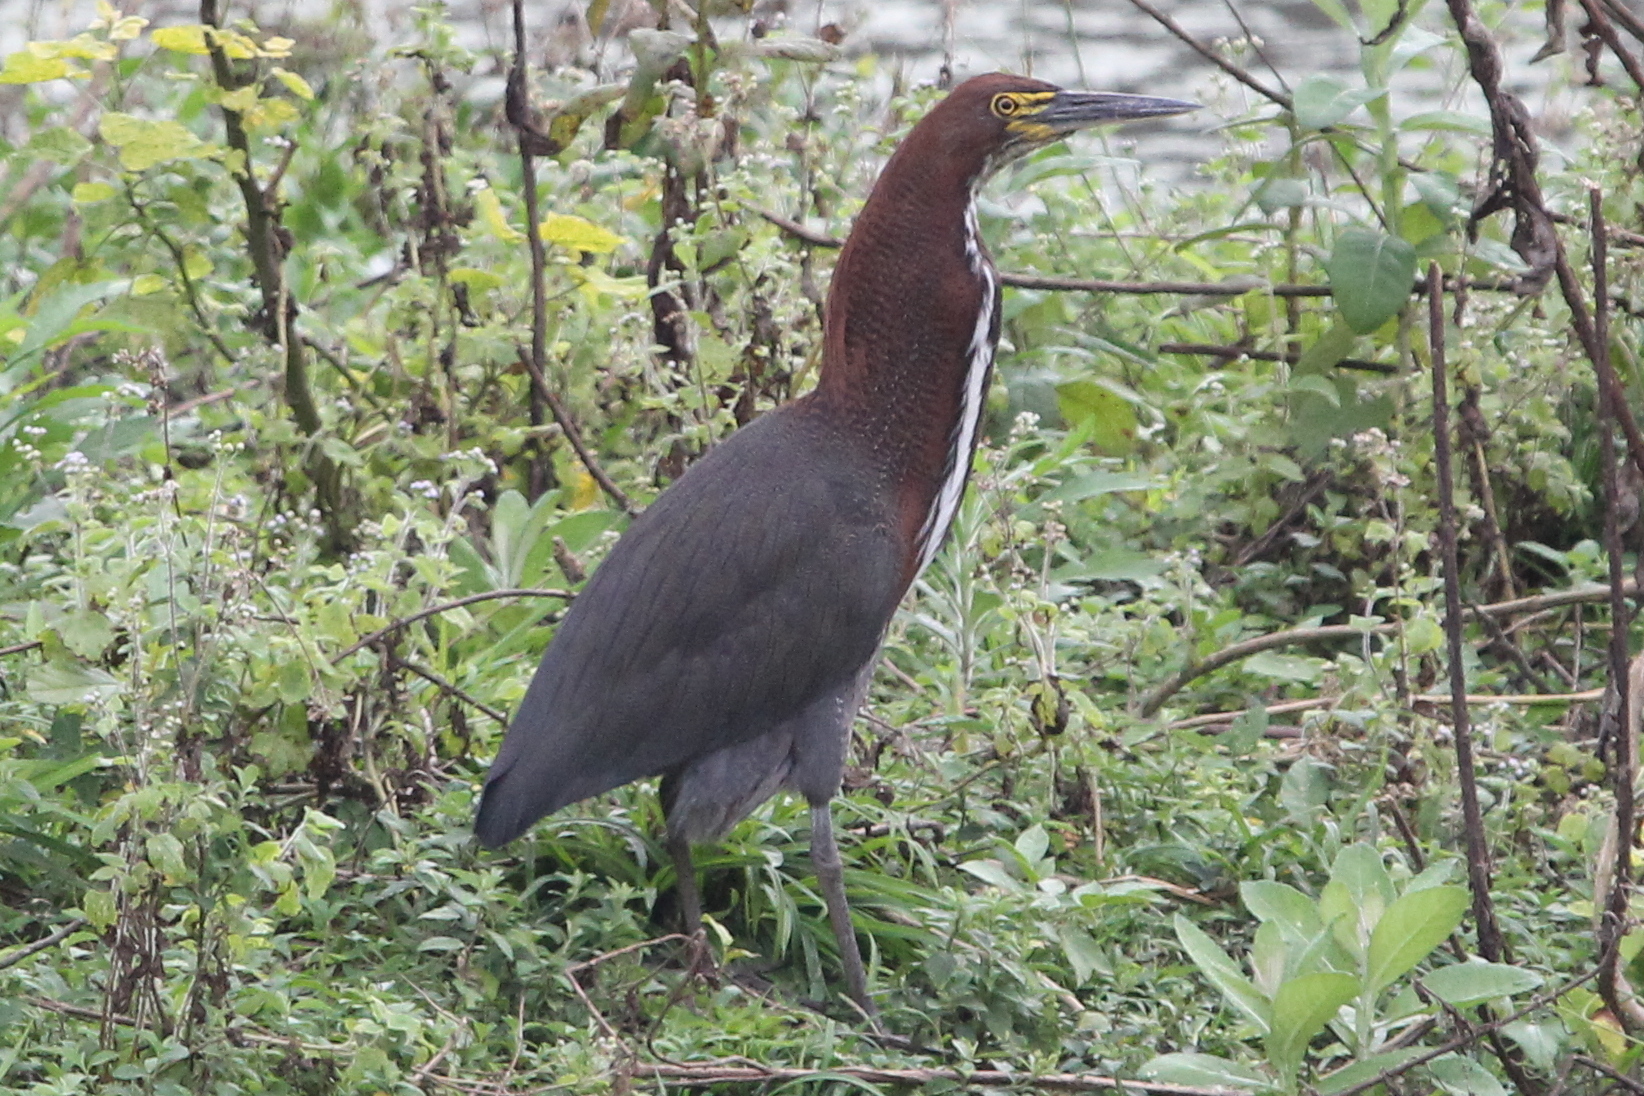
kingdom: Animalia
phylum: Chordata
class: Aves
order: Pelecaniformes
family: Ardeidae
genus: Tigrisoma
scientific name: Tigrisoma lineatum
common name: Rufescent tiger-heron
